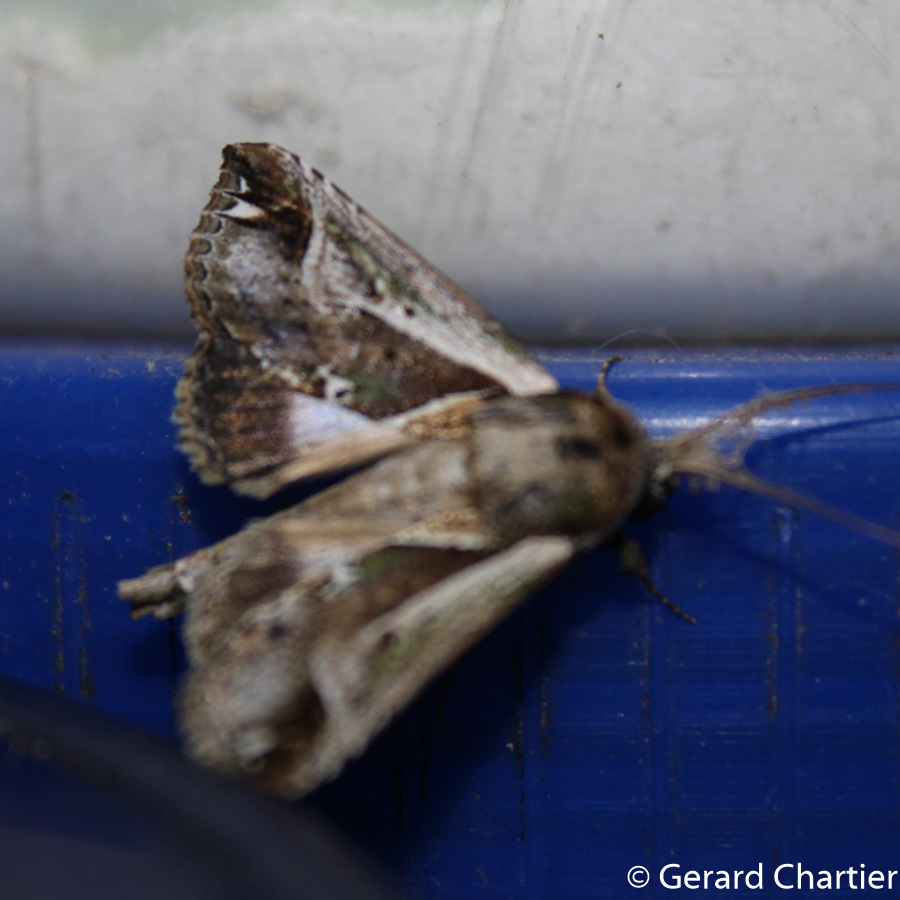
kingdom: Animalia
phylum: Arthropoda
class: Insecta
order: Lepidoptera
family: Nolidae
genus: Risoba
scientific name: Risoba diversipennis
